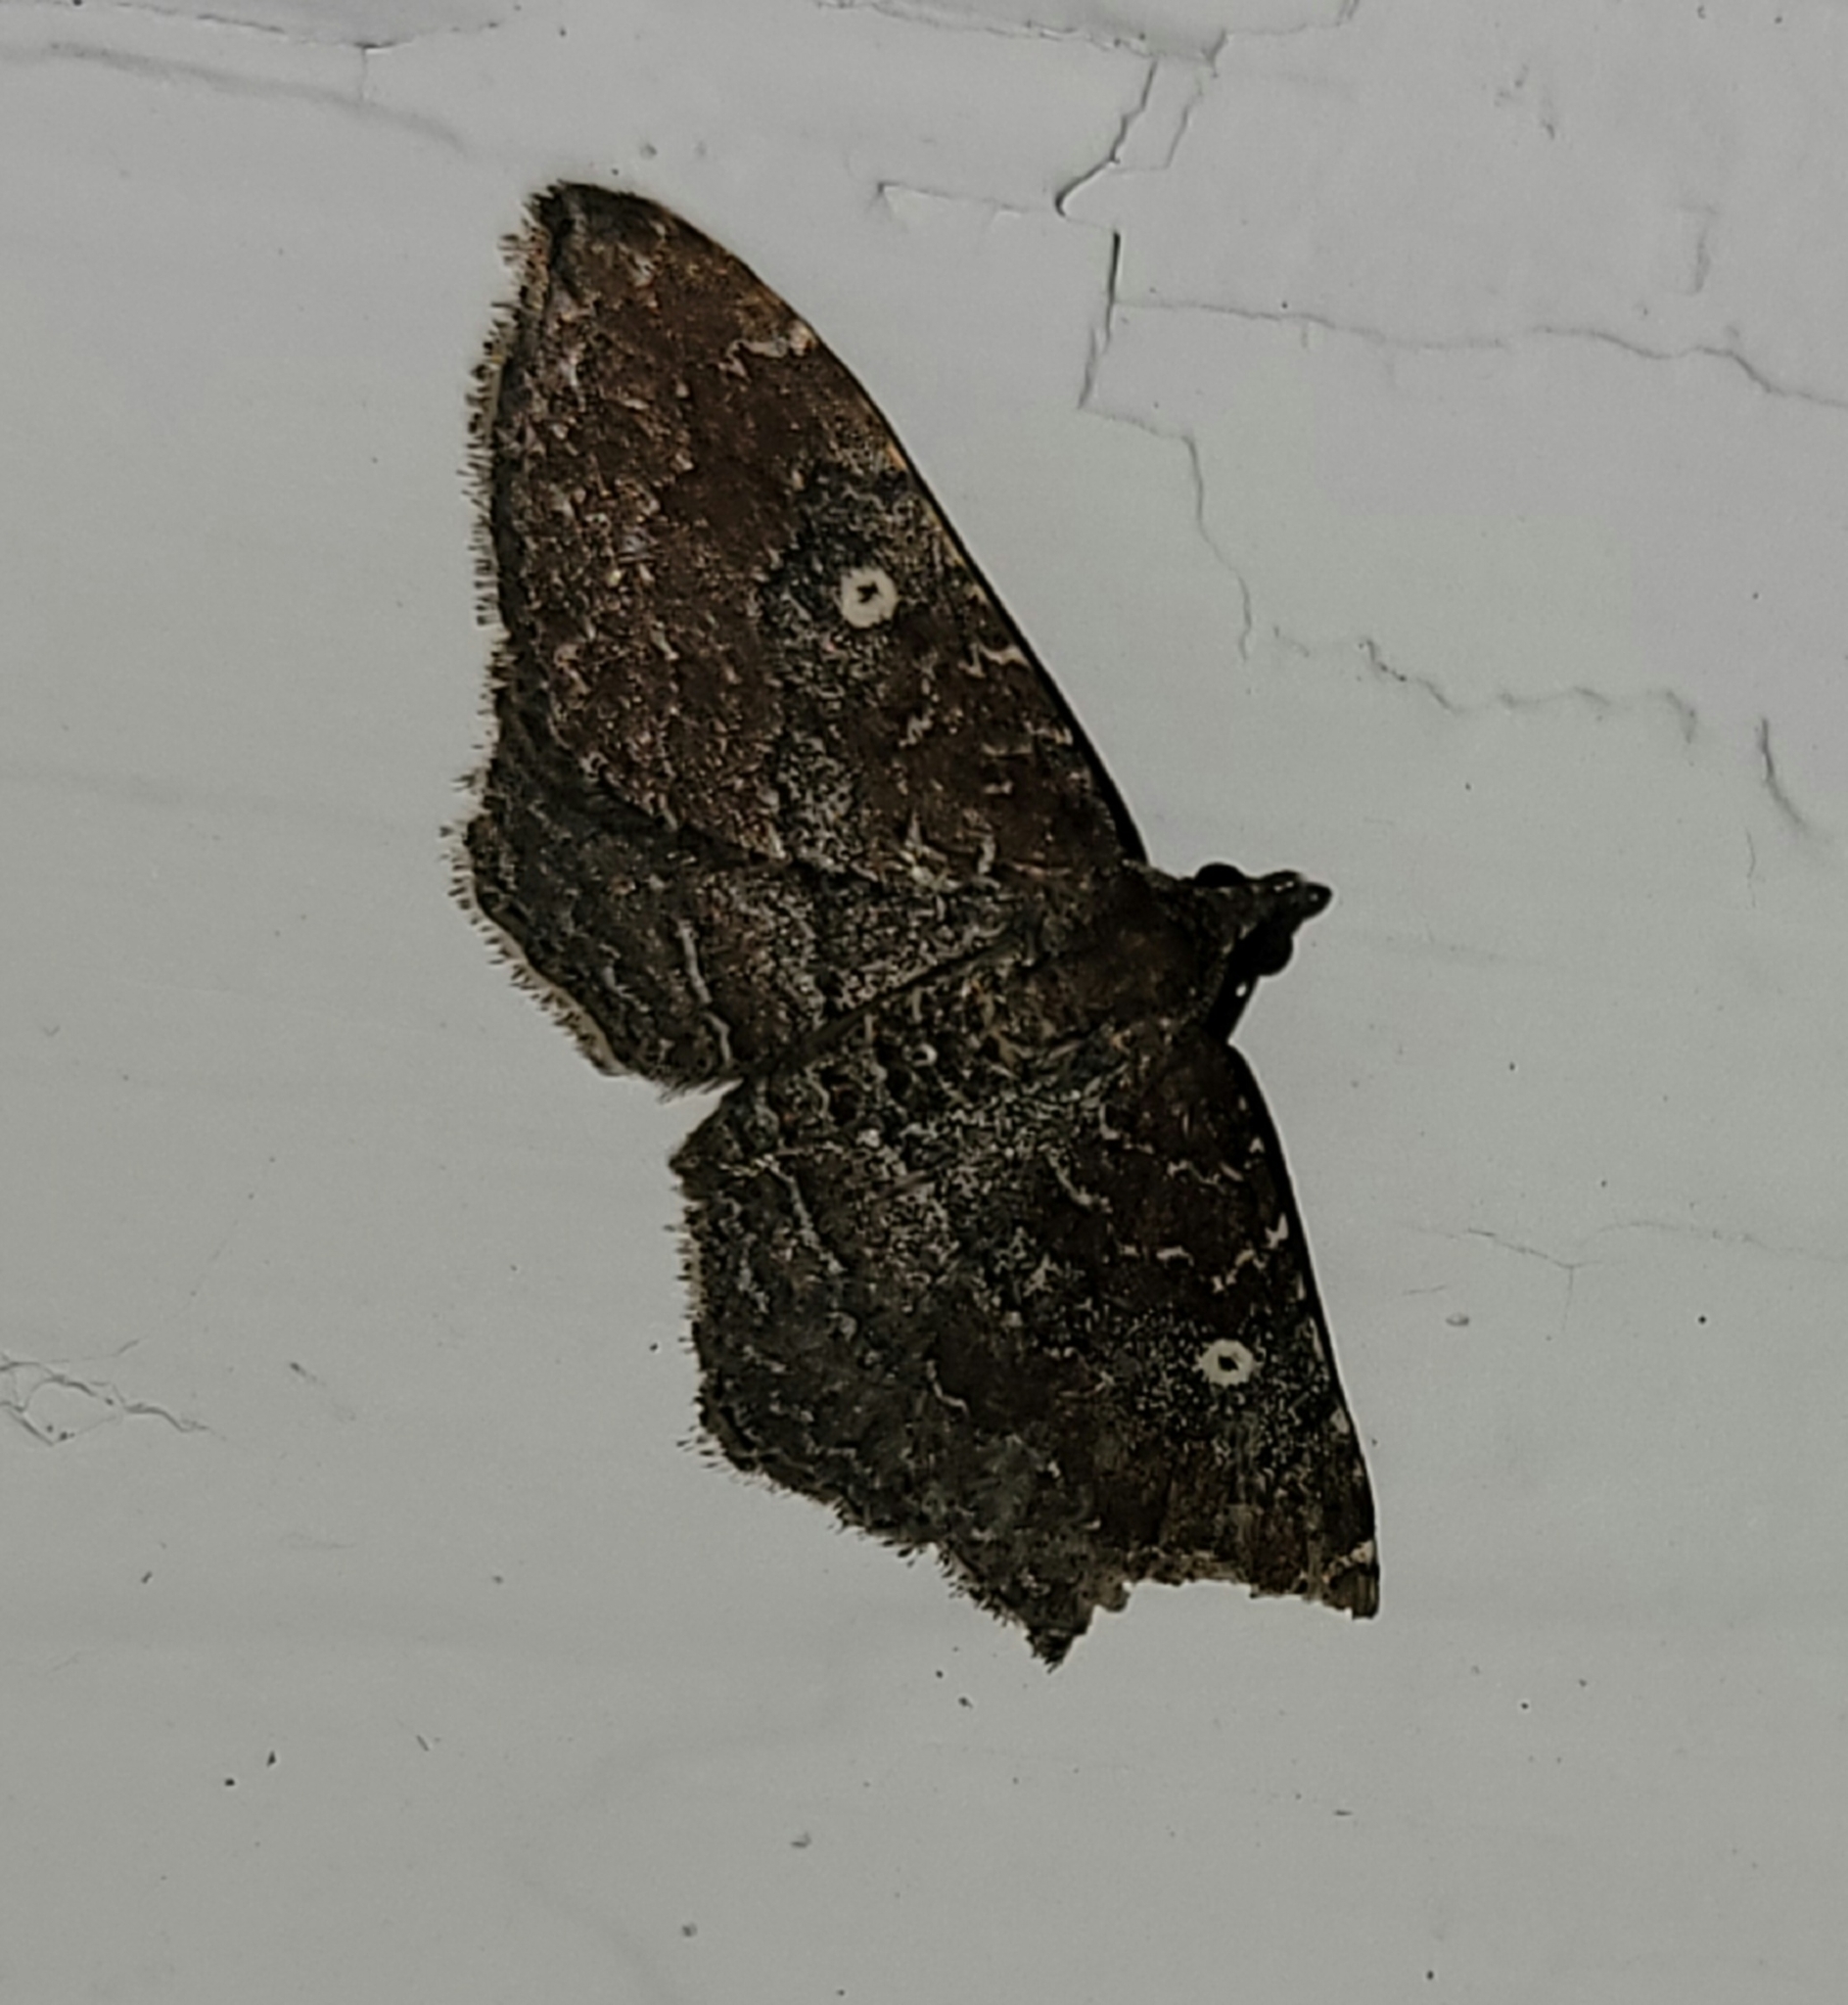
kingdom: Animalia
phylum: Arthropoda
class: Insecta
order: Lepidoptera
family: Geometridae
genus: Orthonama
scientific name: Orthonama obstipata
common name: The gem
